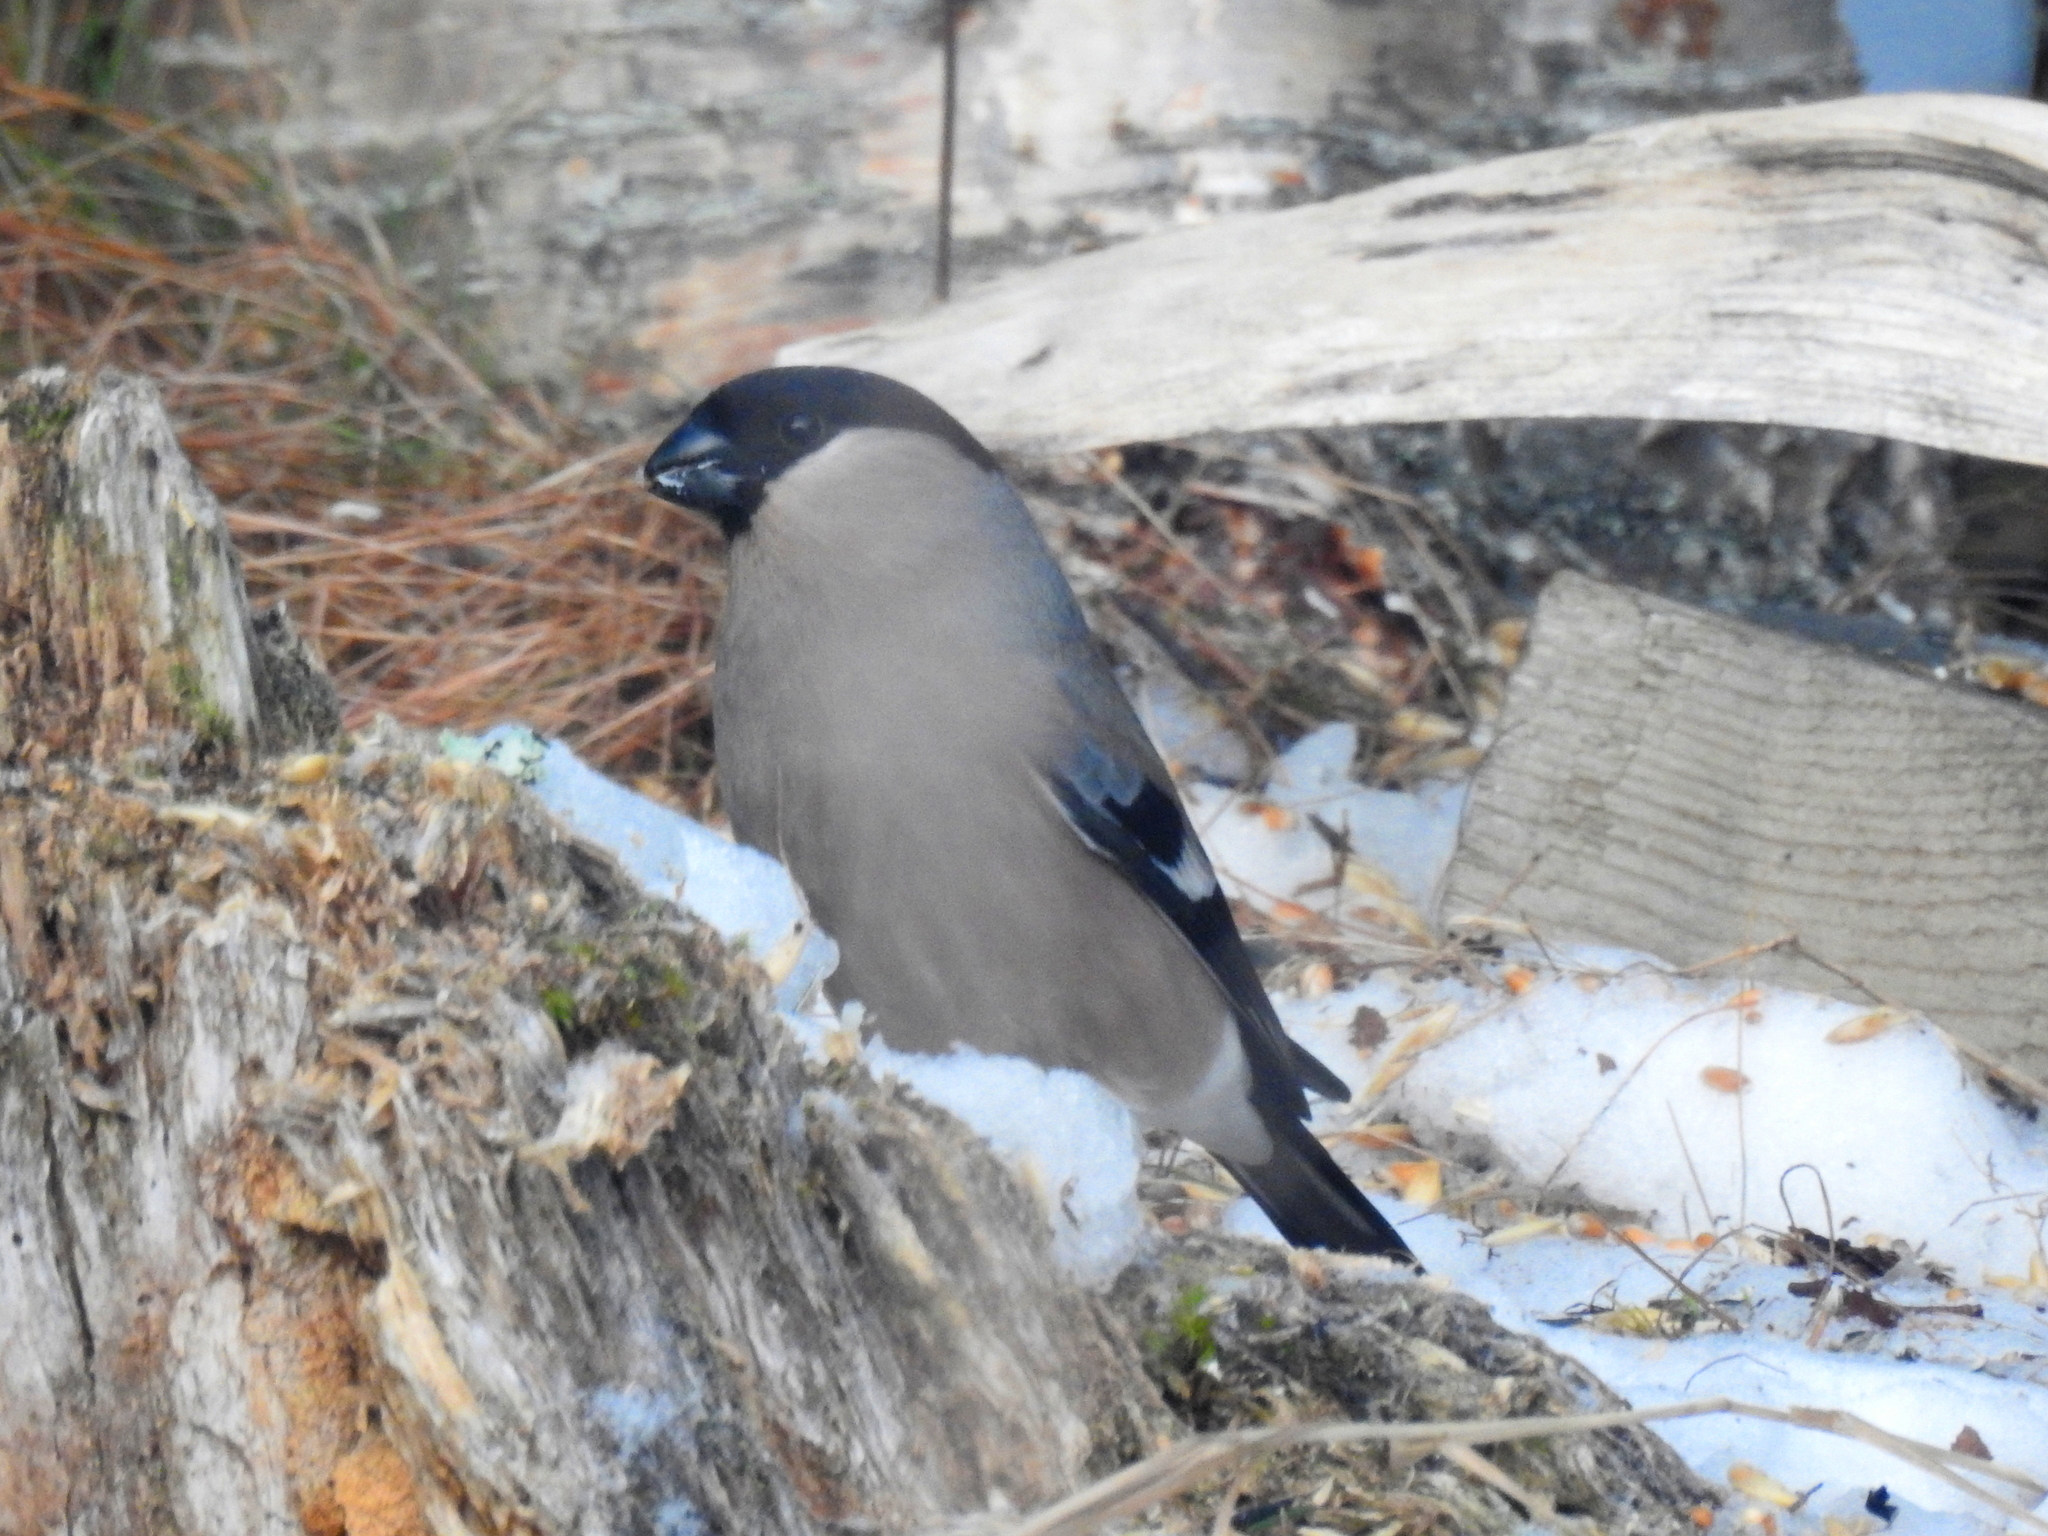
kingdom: Animalia
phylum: Chordata
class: Aves
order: Passeriformes
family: Fringillidae
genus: Pyrrhula
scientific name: Pyrrhula pyrrhula
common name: Eurasian bullfinch
